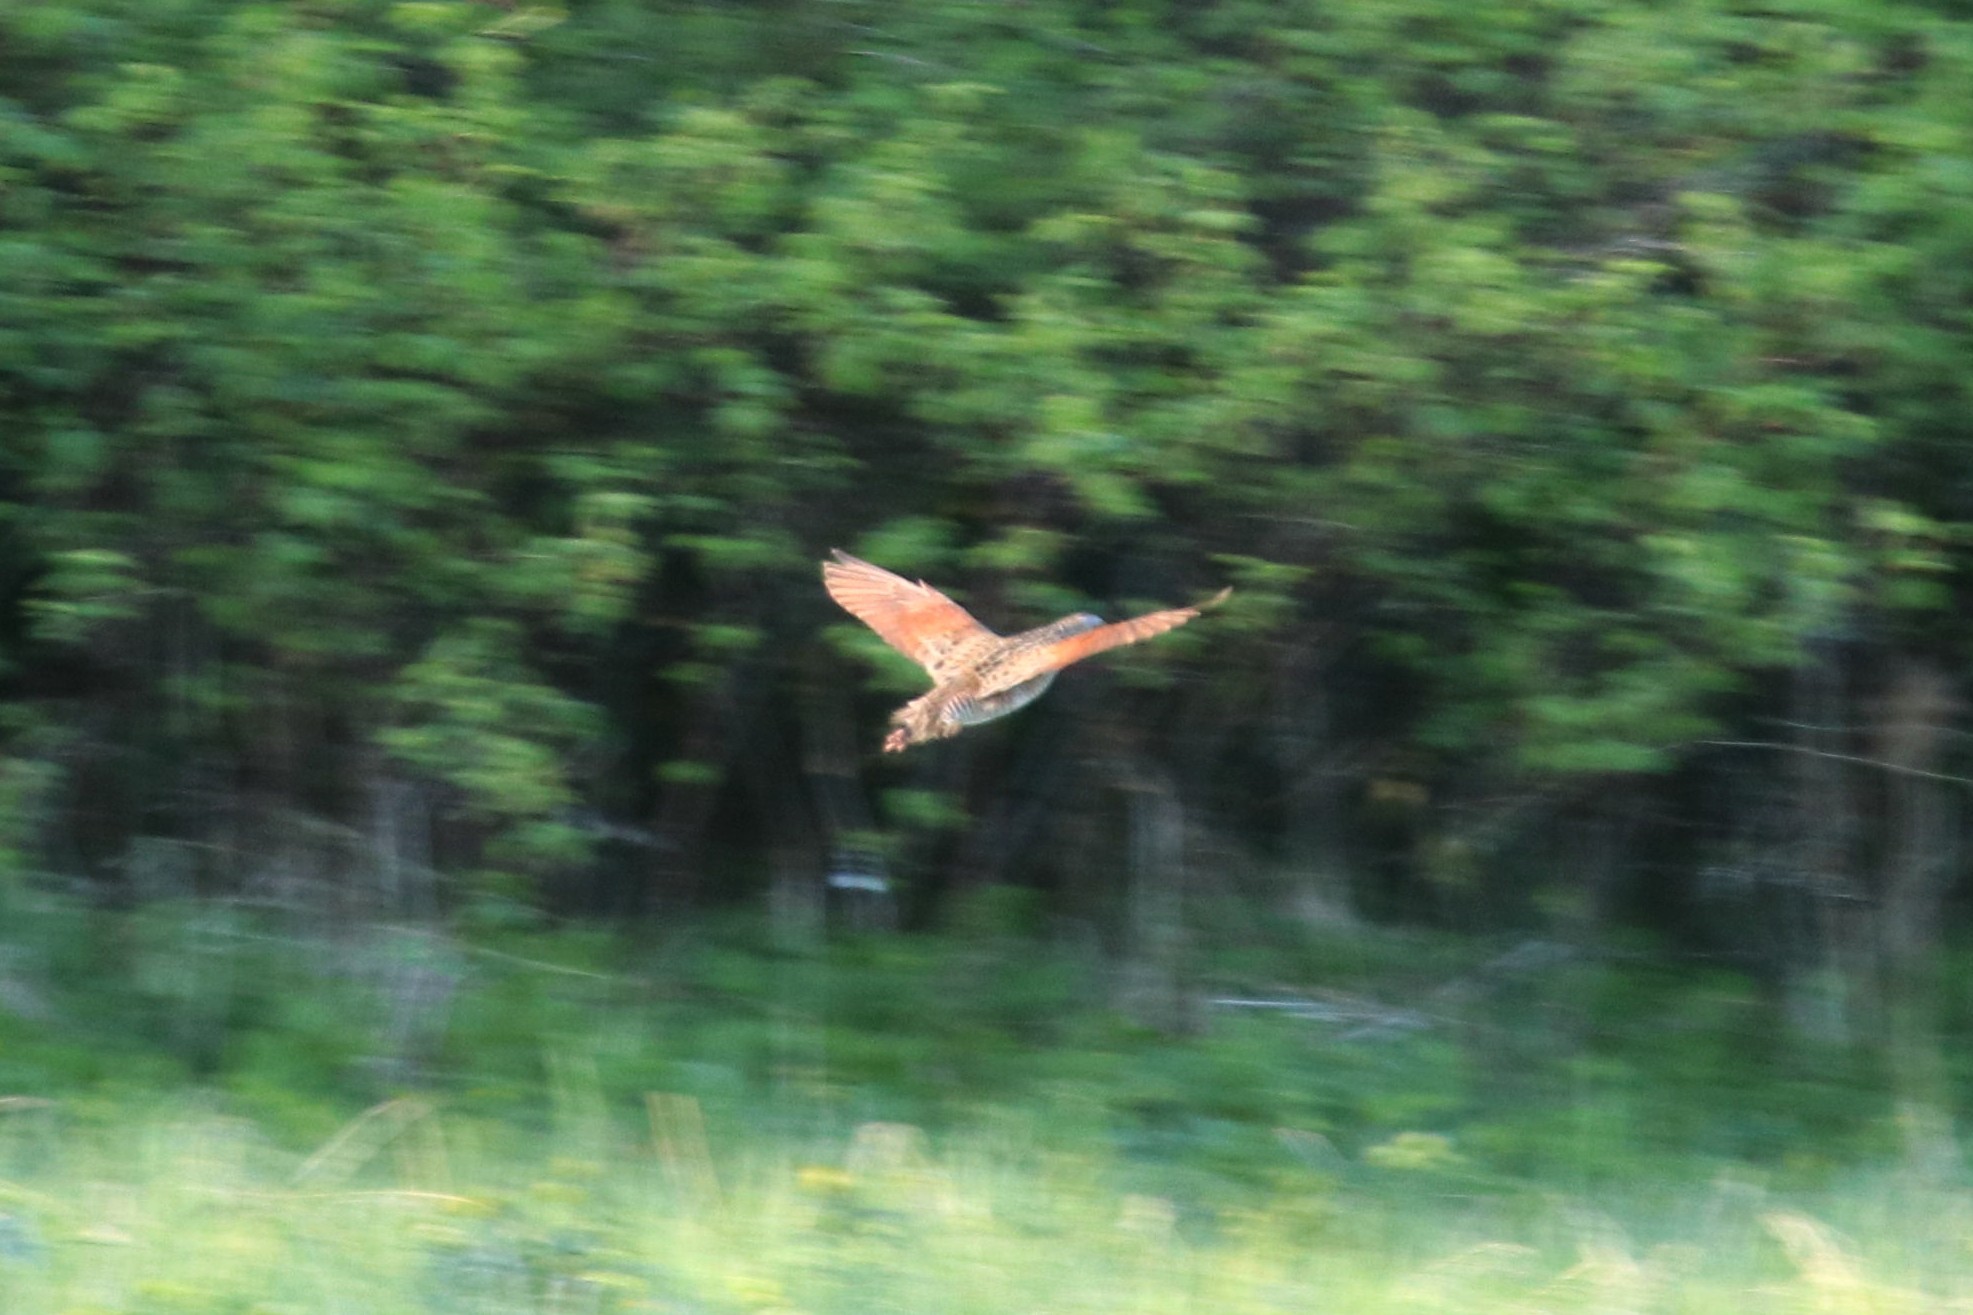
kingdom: Animalia
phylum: Chordata
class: Aves
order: Gruiformes
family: Rallidae
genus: Crex
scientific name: Crex crex
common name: Corn crake
